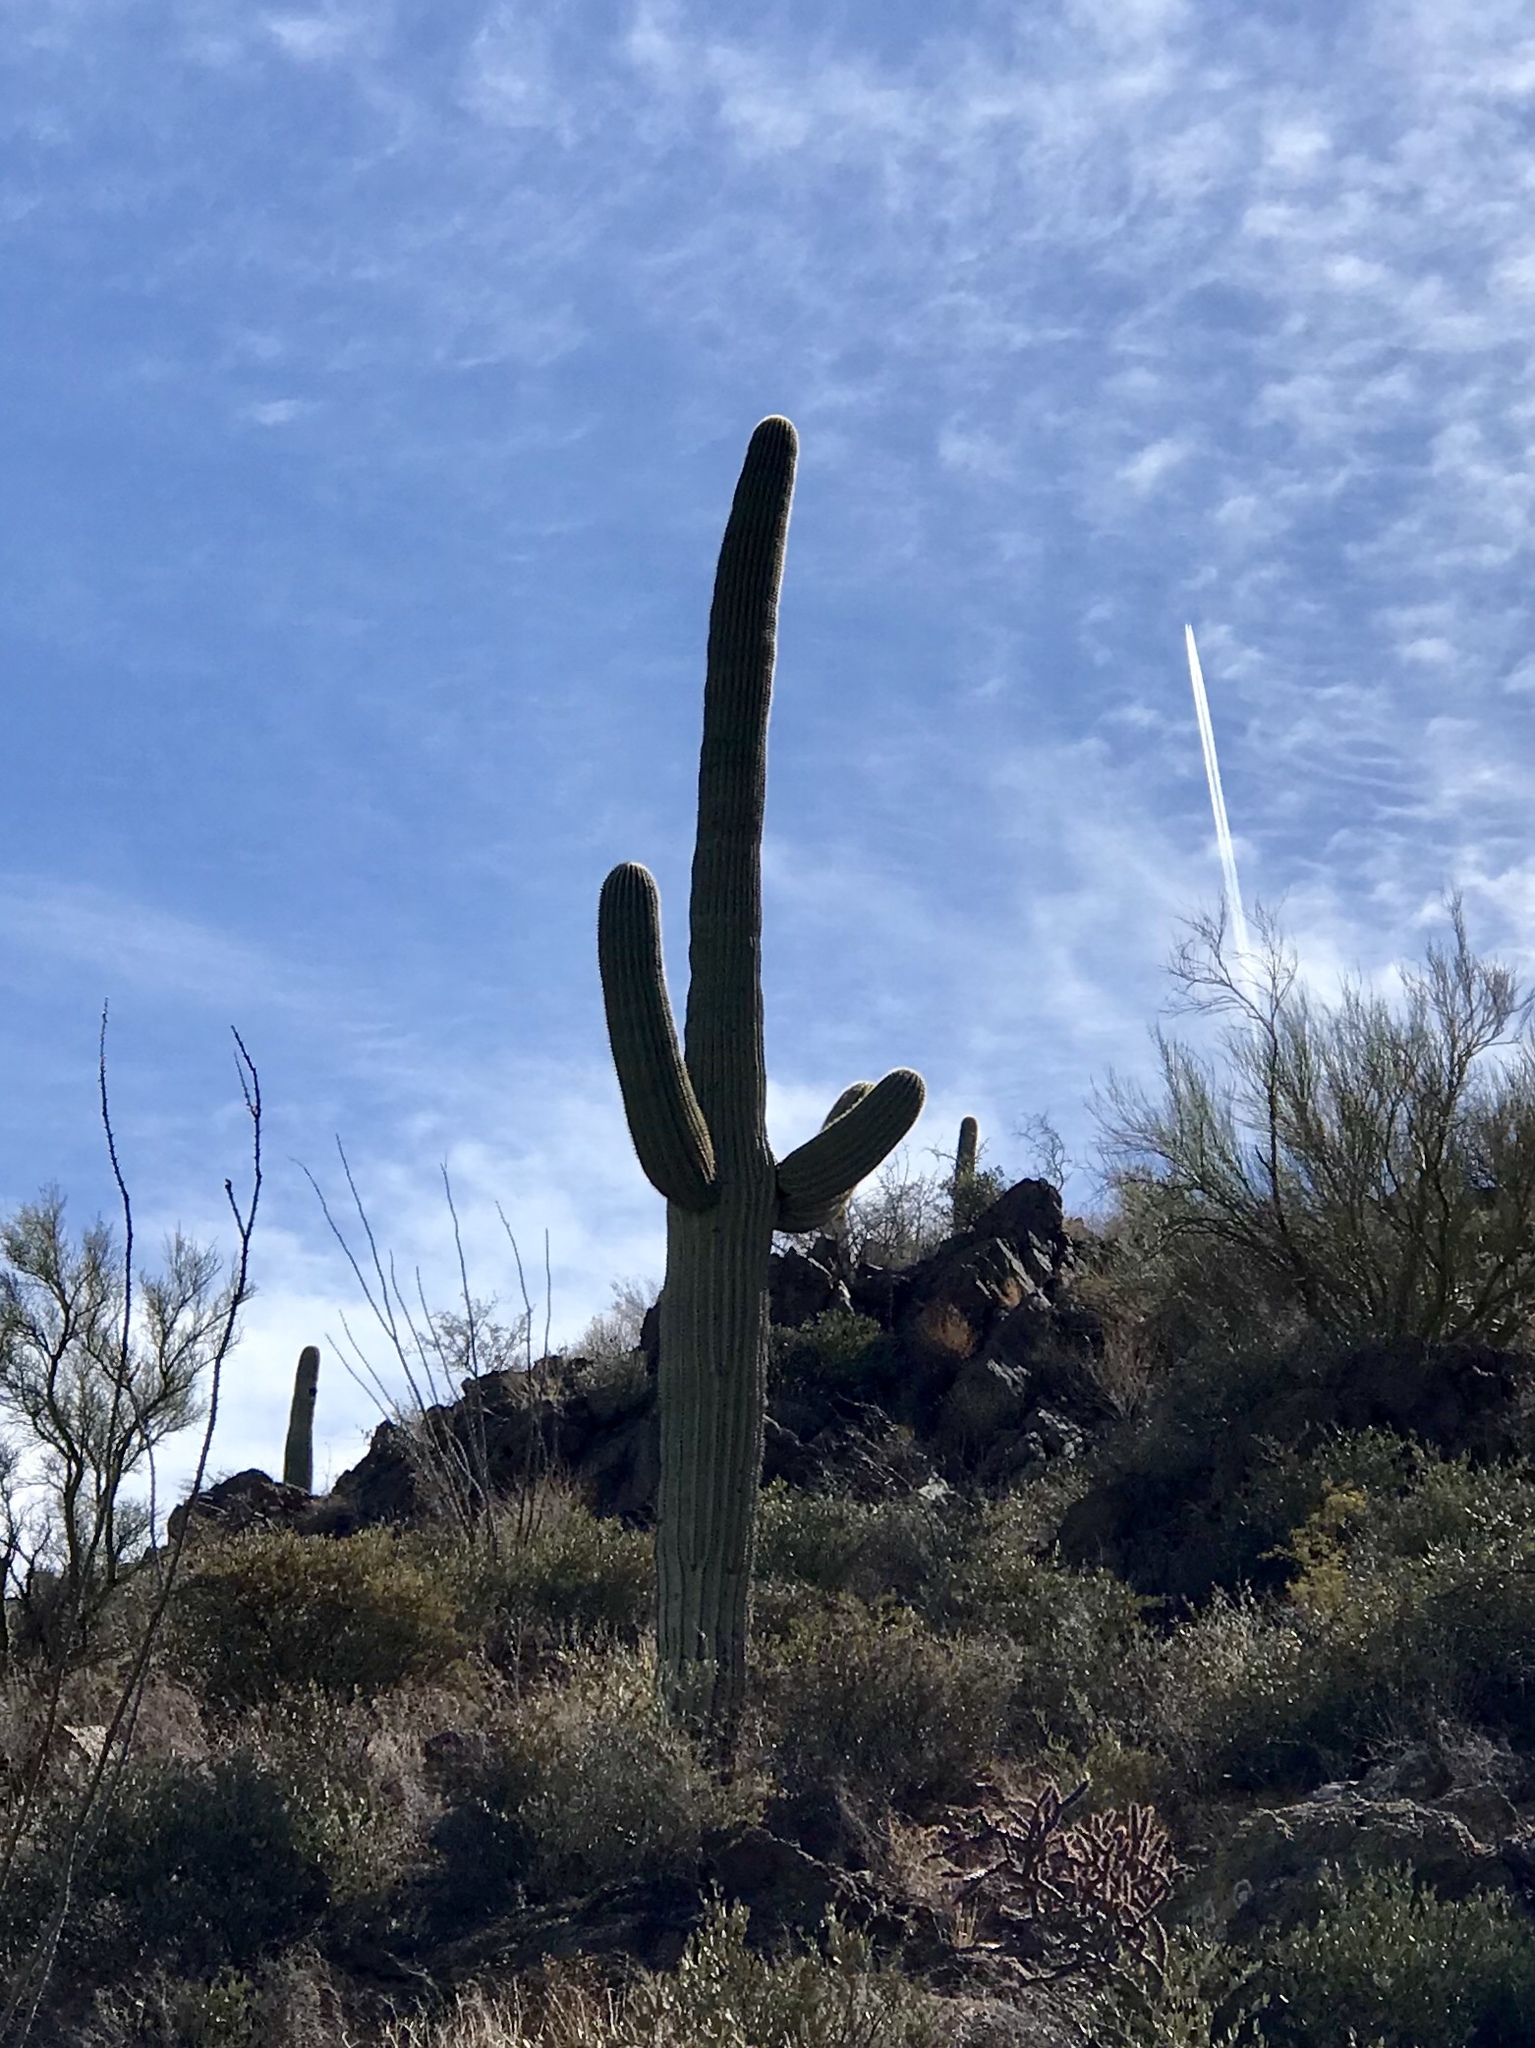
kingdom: Plantae
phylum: Tracheophyta
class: Magnoliopsida
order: Caryophyllales
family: Cactaceae
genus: Carnegiea
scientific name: Carnegiea gigantea
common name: Saguaro
